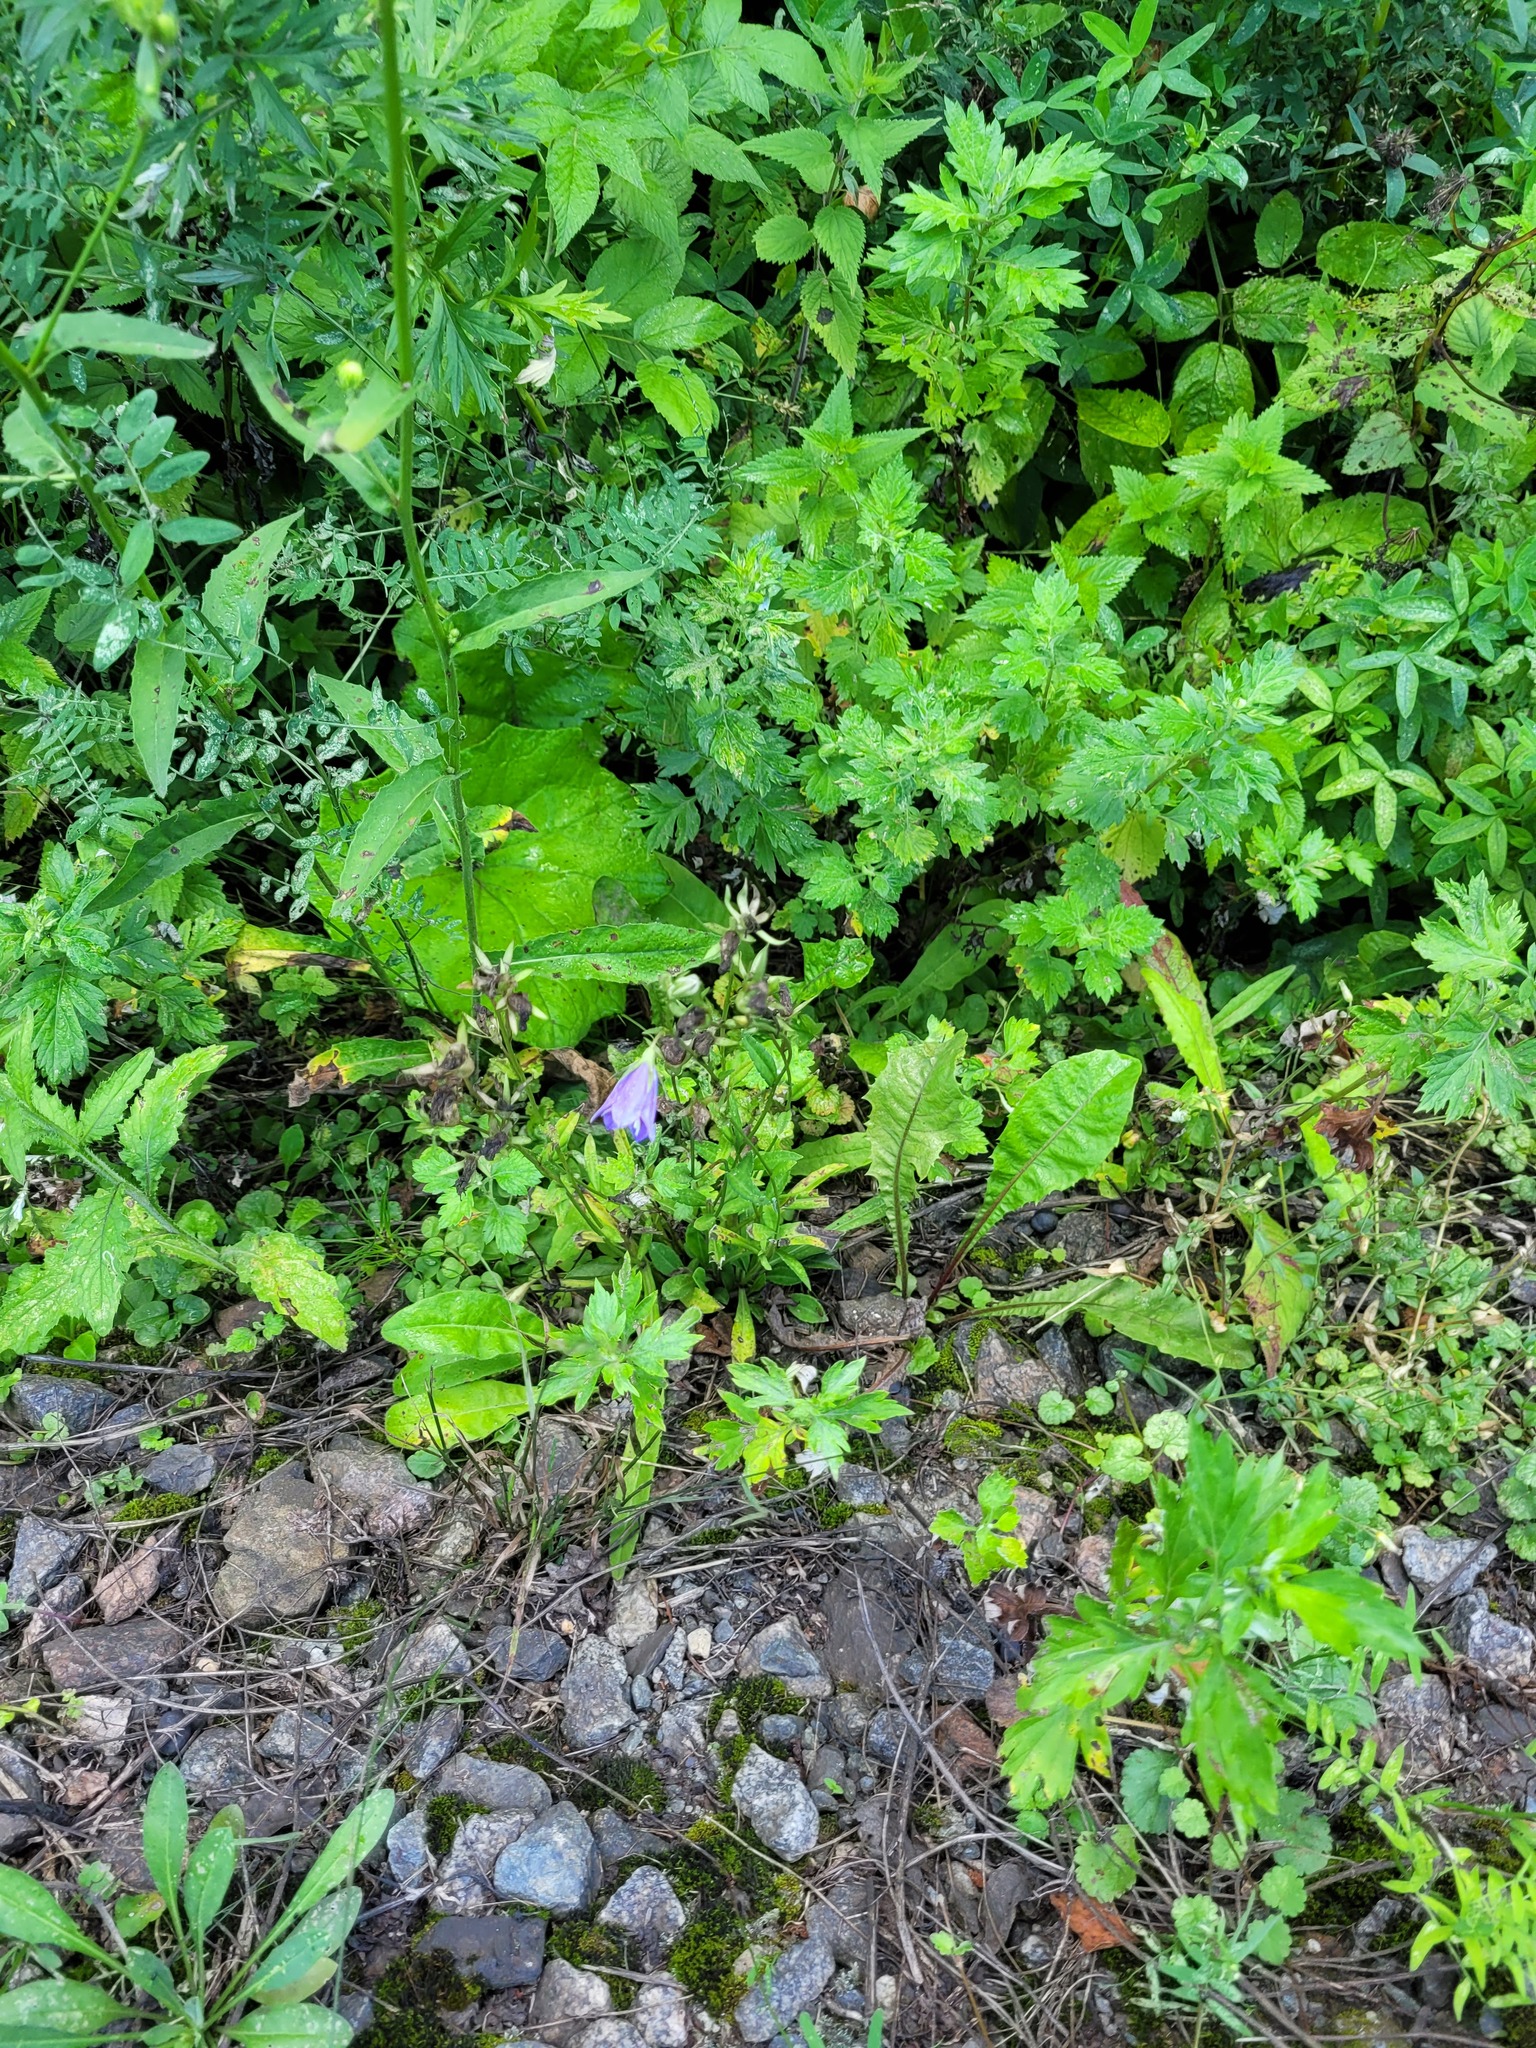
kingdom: Plantae
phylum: Tracheophyta
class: Magnoliopsida
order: Asterales
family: Campanulaceae
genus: Campanula
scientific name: Campanula persicifolia
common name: Peach-leaved bellflower
